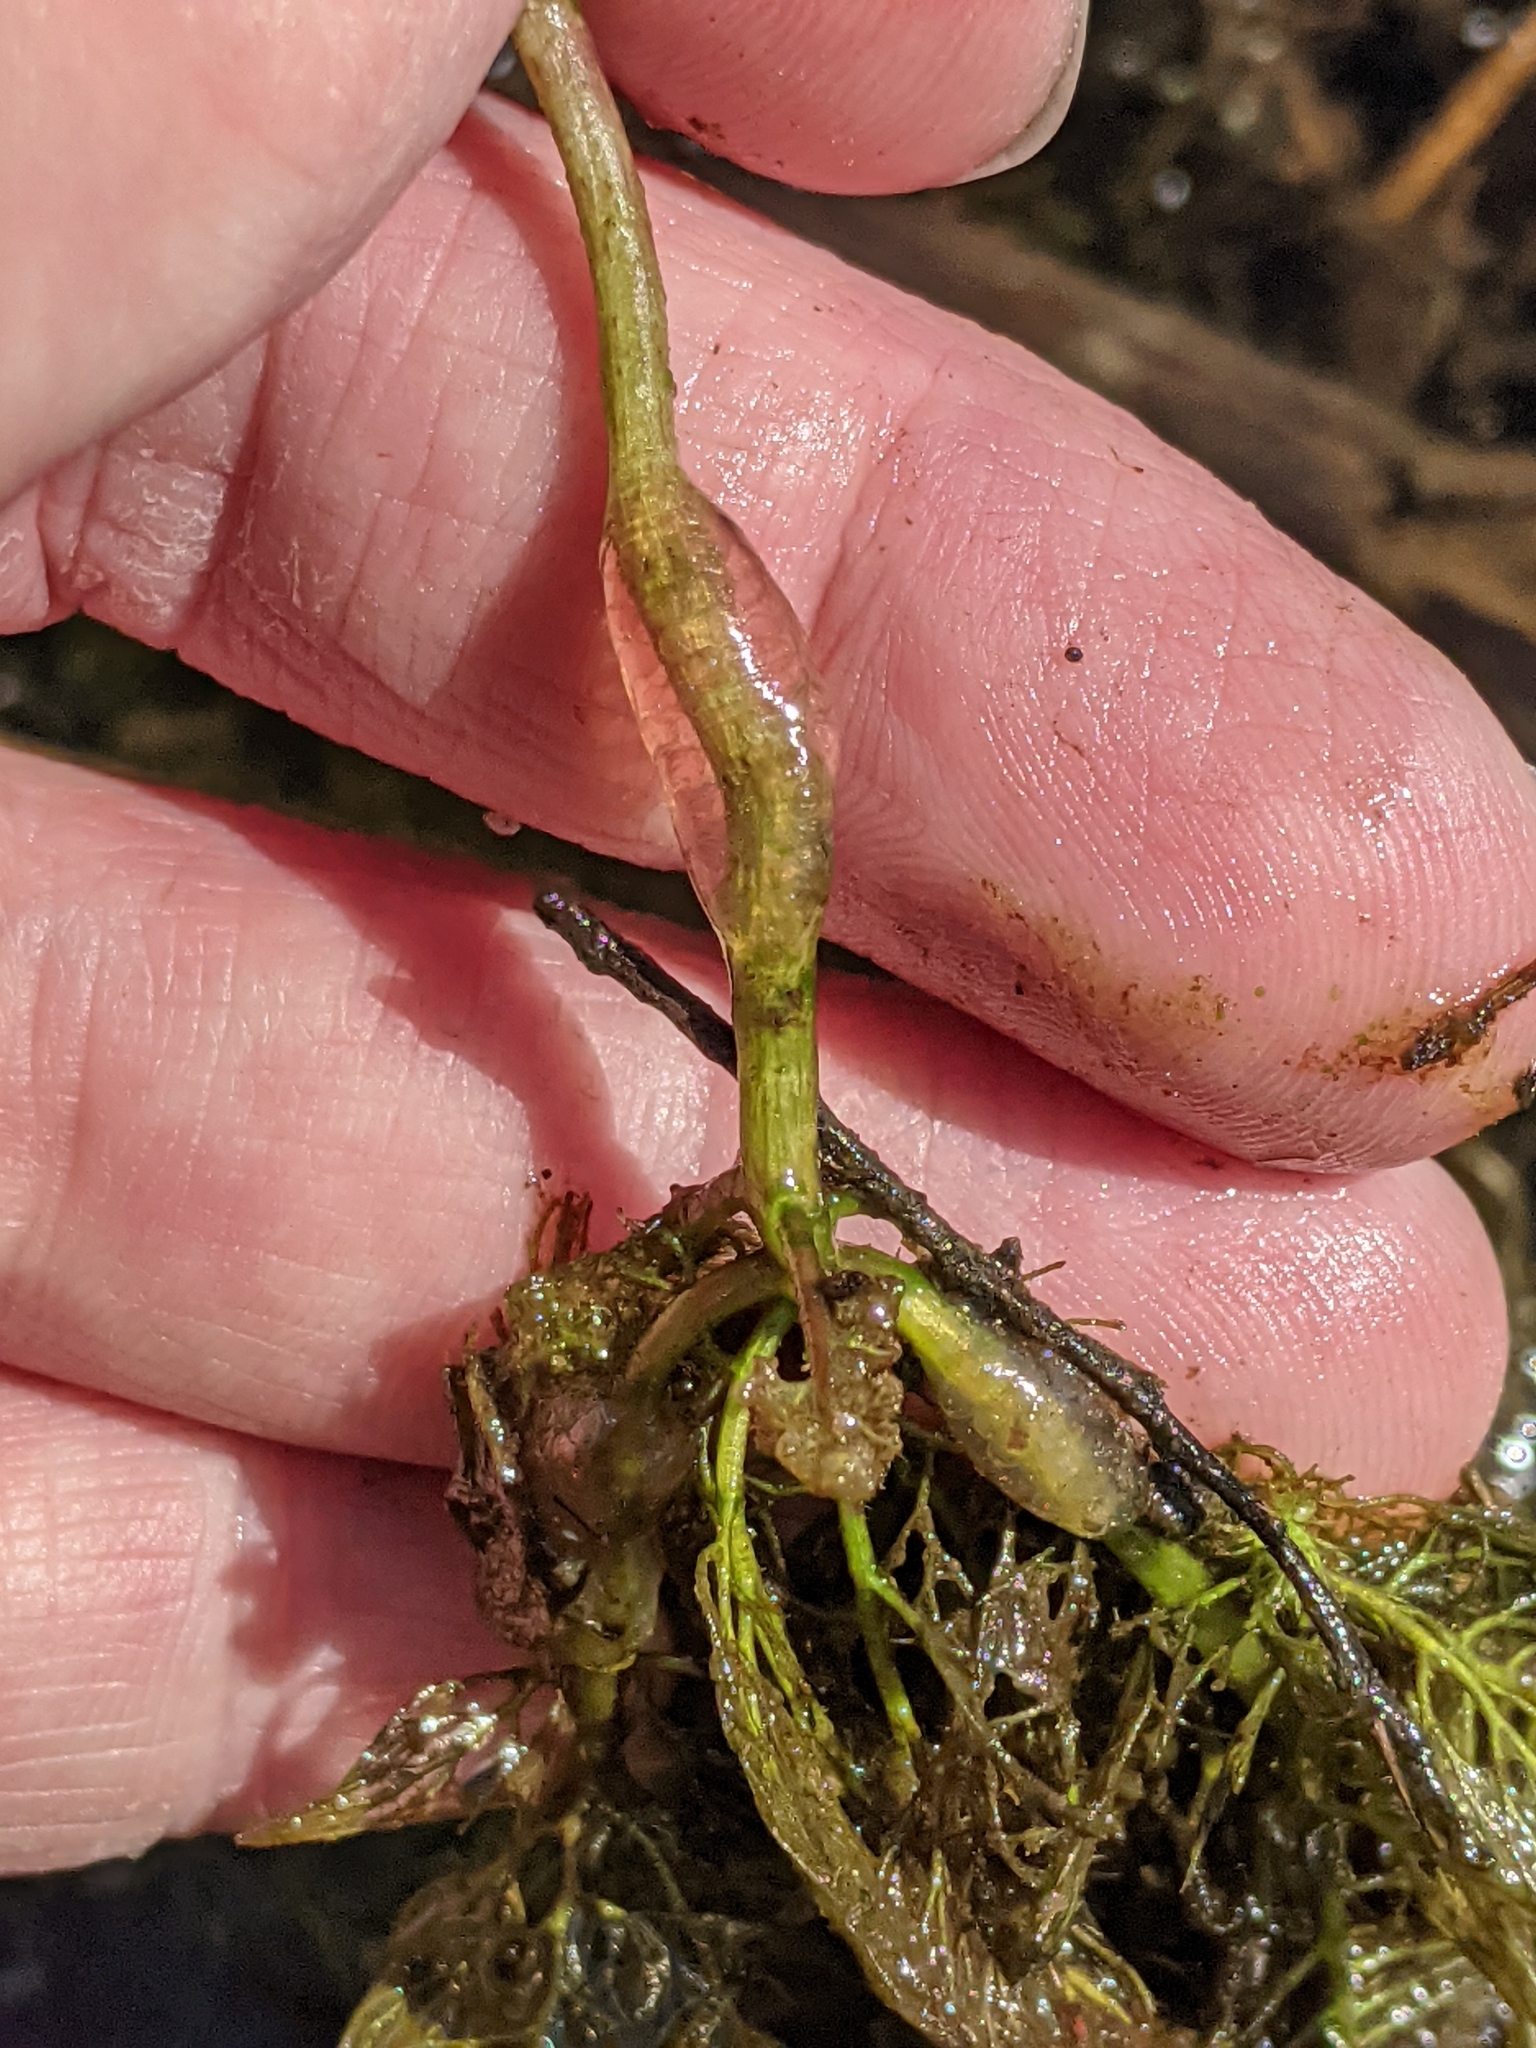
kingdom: Plantae
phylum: Tracheophyta
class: Magnoliopsida
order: Lamiales
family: Lentibulariaceae
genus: Utricularia
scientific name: Utricularia macrorhiza
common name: Common bladderwort
